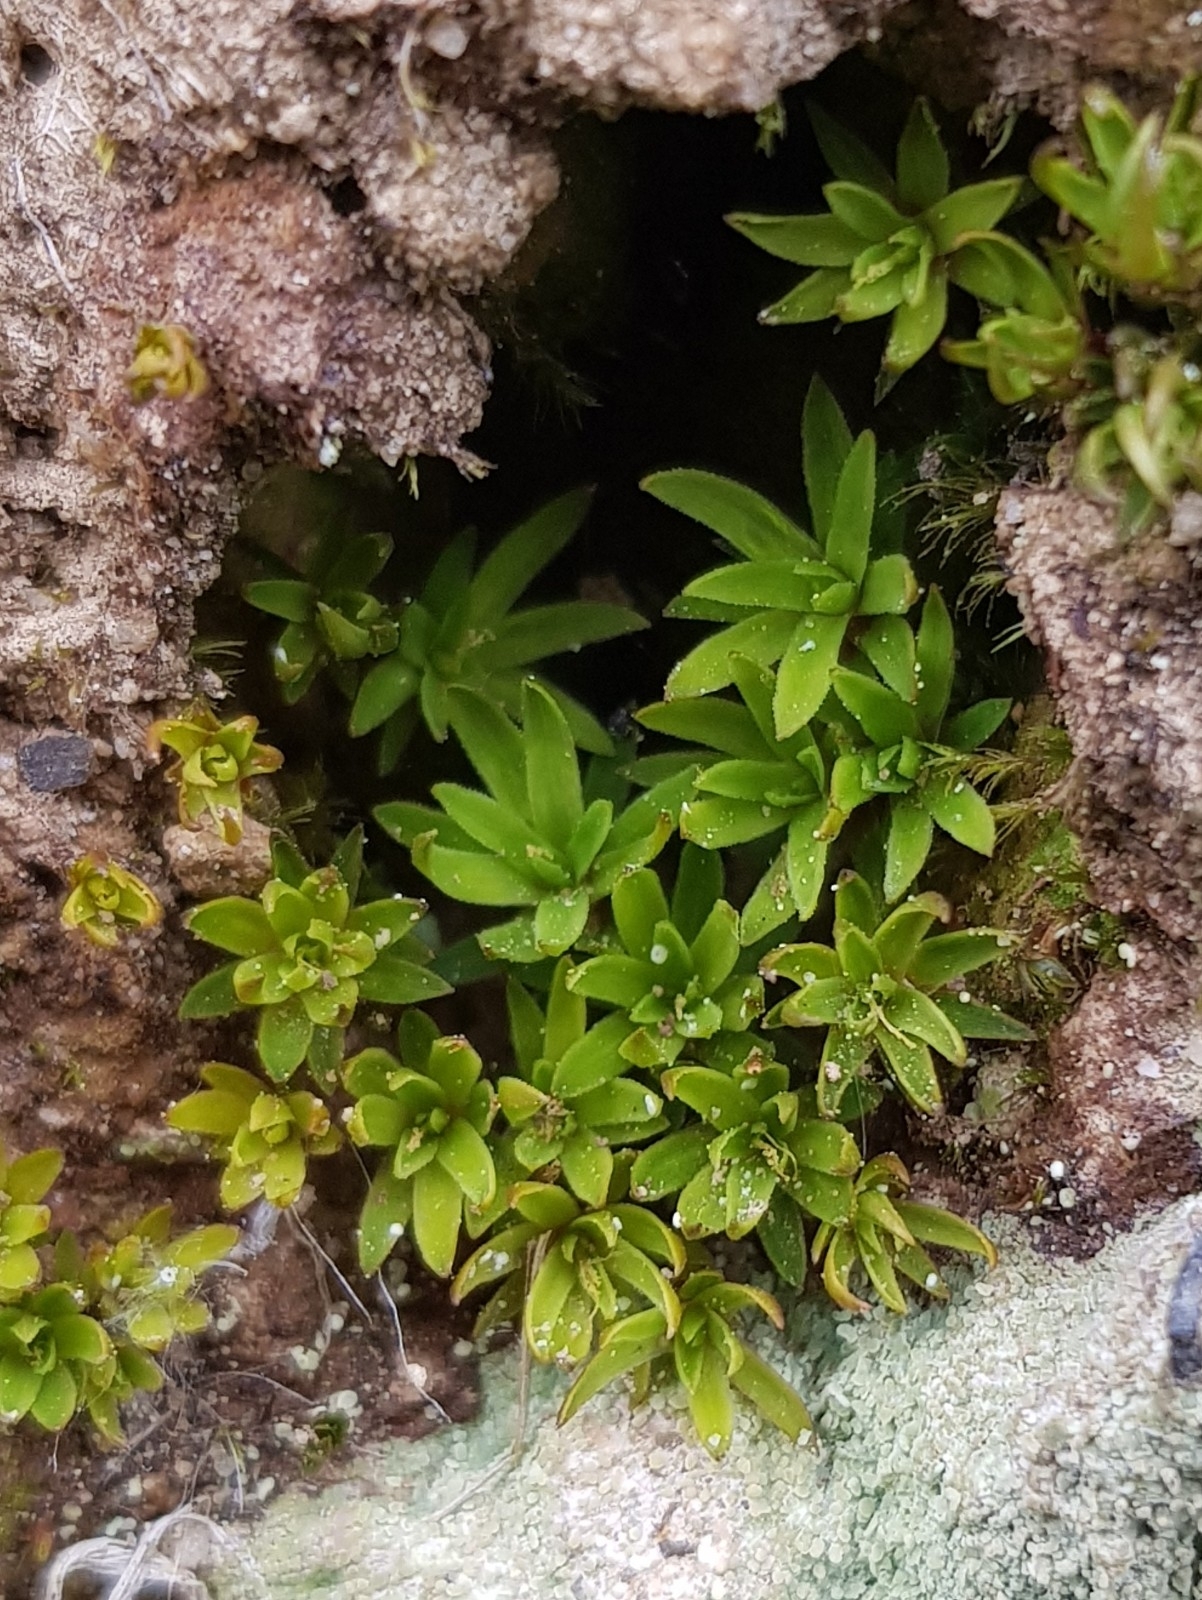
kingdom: Plantae
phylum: Bryophyta
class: Polytrichopsida
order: Polytrichales
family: Polytrichaceae
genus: Pogonatum
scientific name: Pogonatum aloides
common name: Aloe haircap
